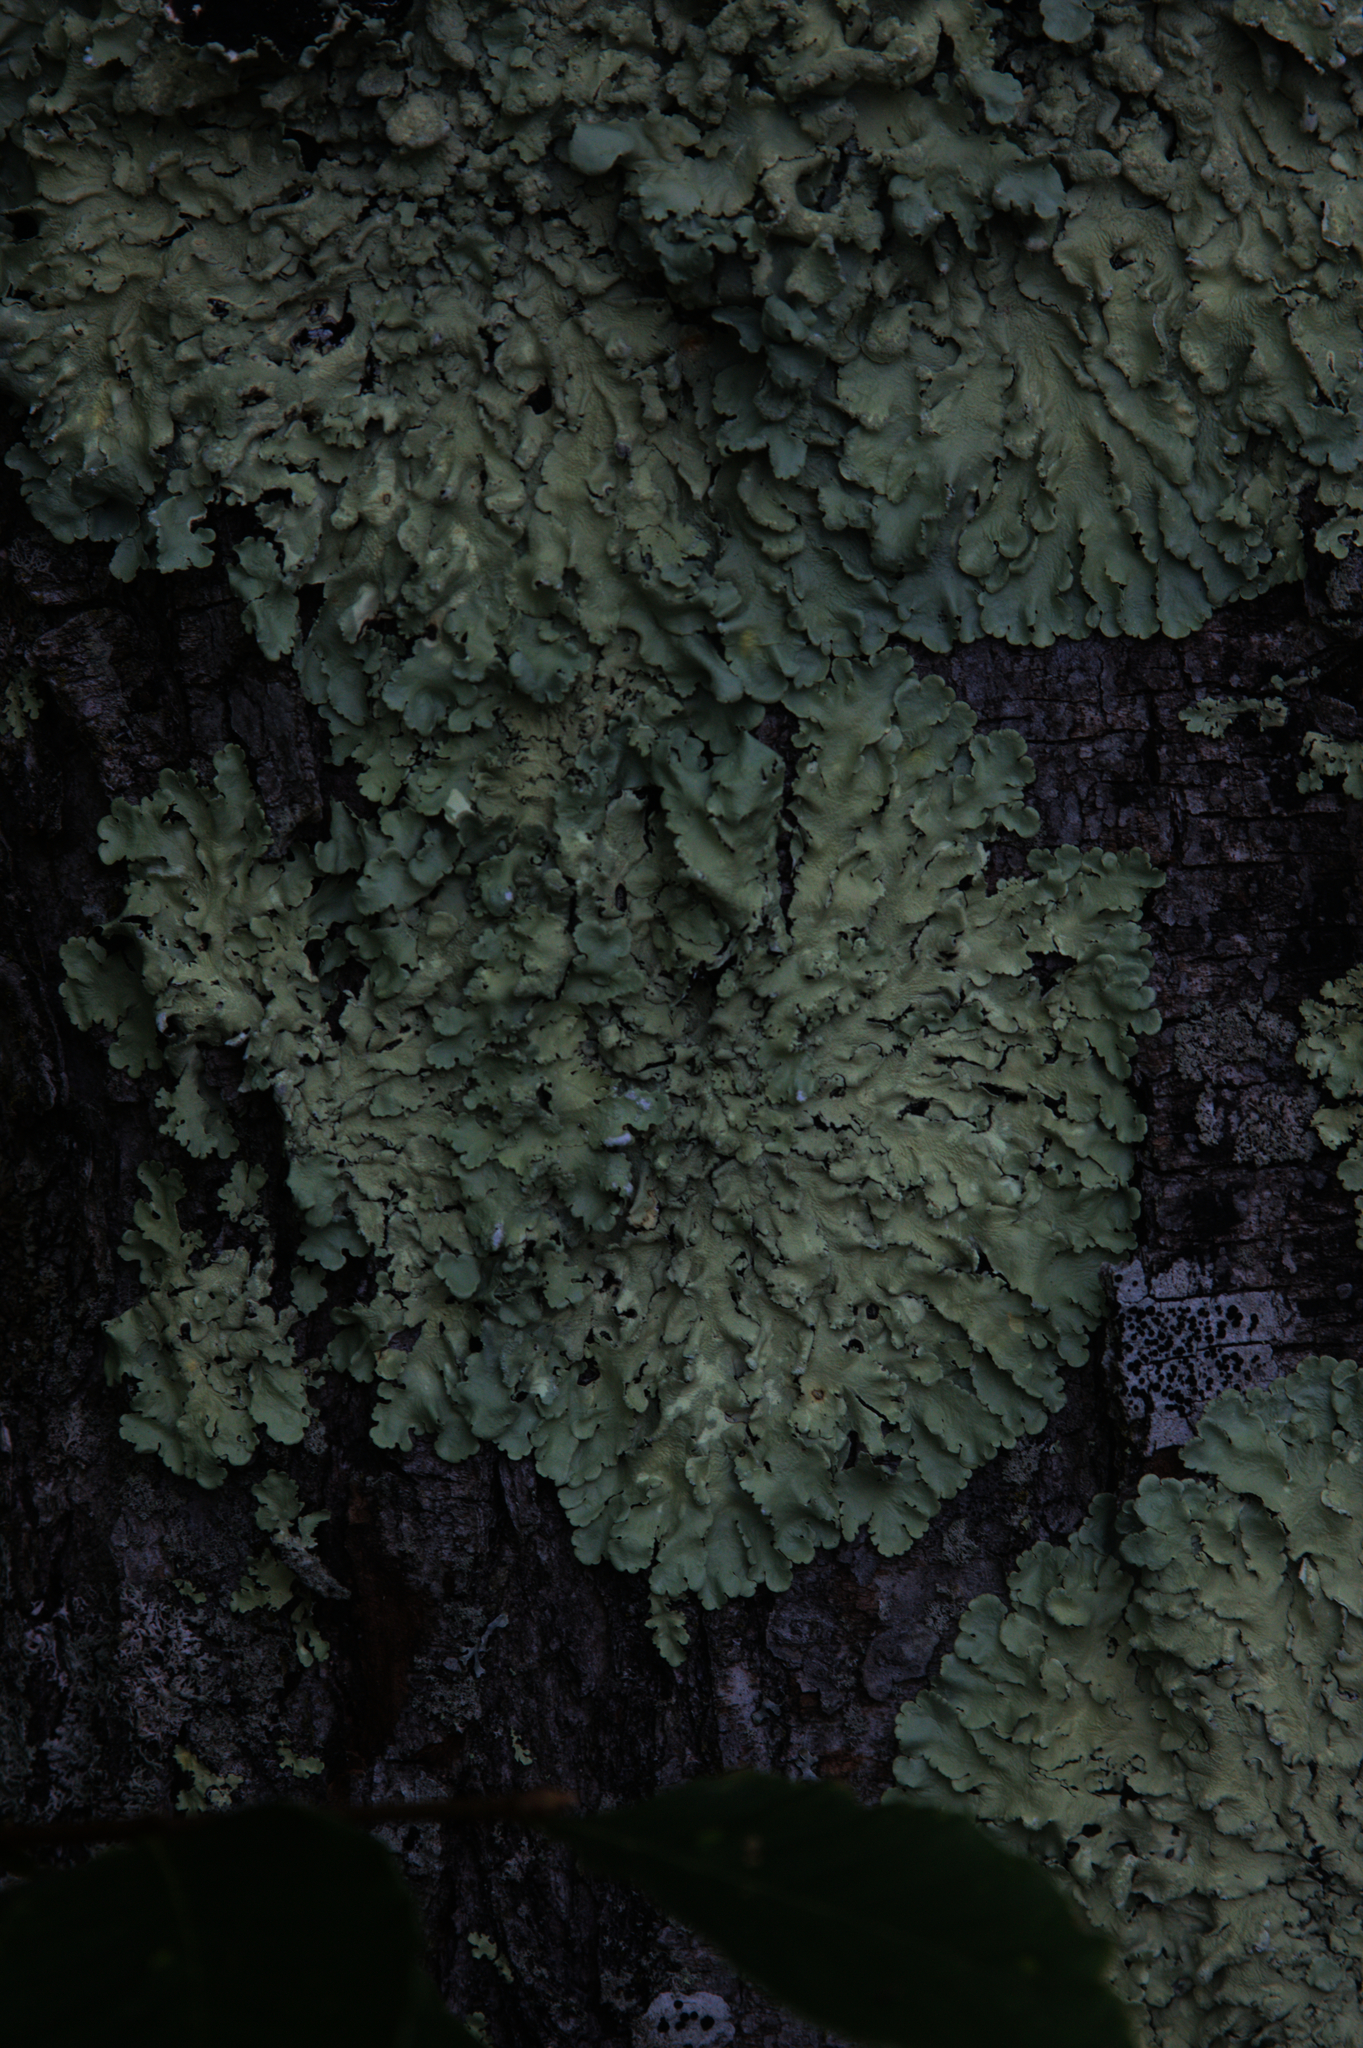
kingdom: Fungi
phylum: Ascomycota
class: Lecanoromycetes
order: Lecanorales
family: Parmeliaceae
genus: Flavoparmelia
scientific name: Flavoparmelia caperata
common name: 40-mile per hour lichen
